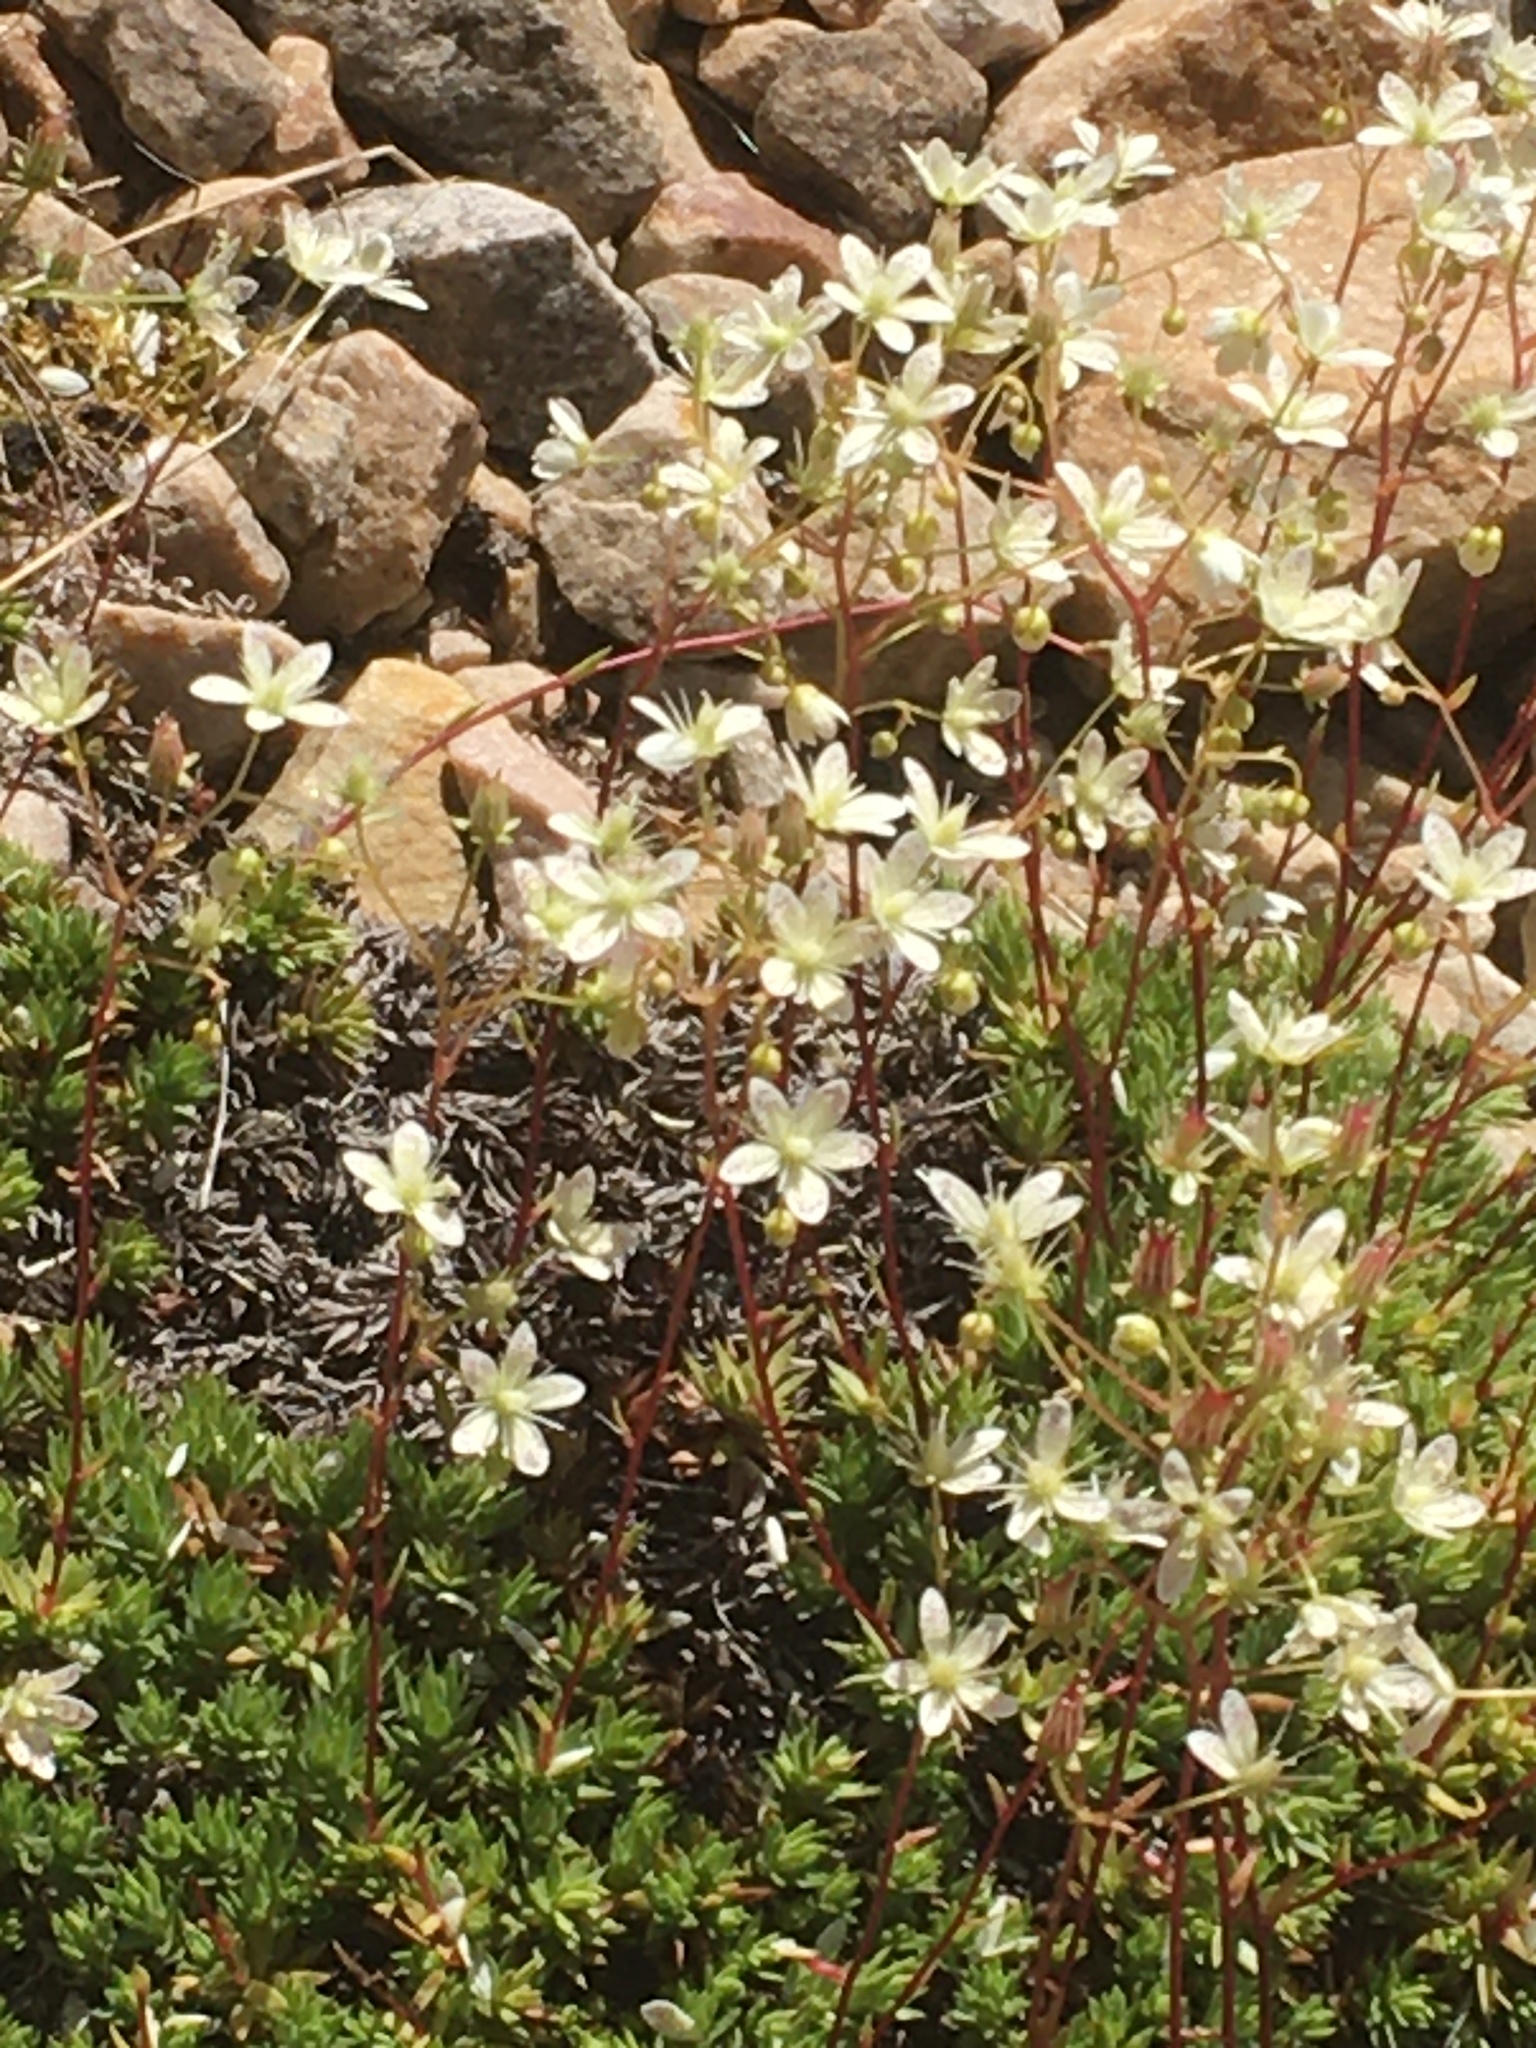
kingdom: Plantae
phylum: Tracheophyta
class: Magnoliopsida
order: Saxifragales
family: Saxifragaceae
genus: Saxifraga
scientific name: Saxifraga bronchialis
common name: Matted saxifrage
